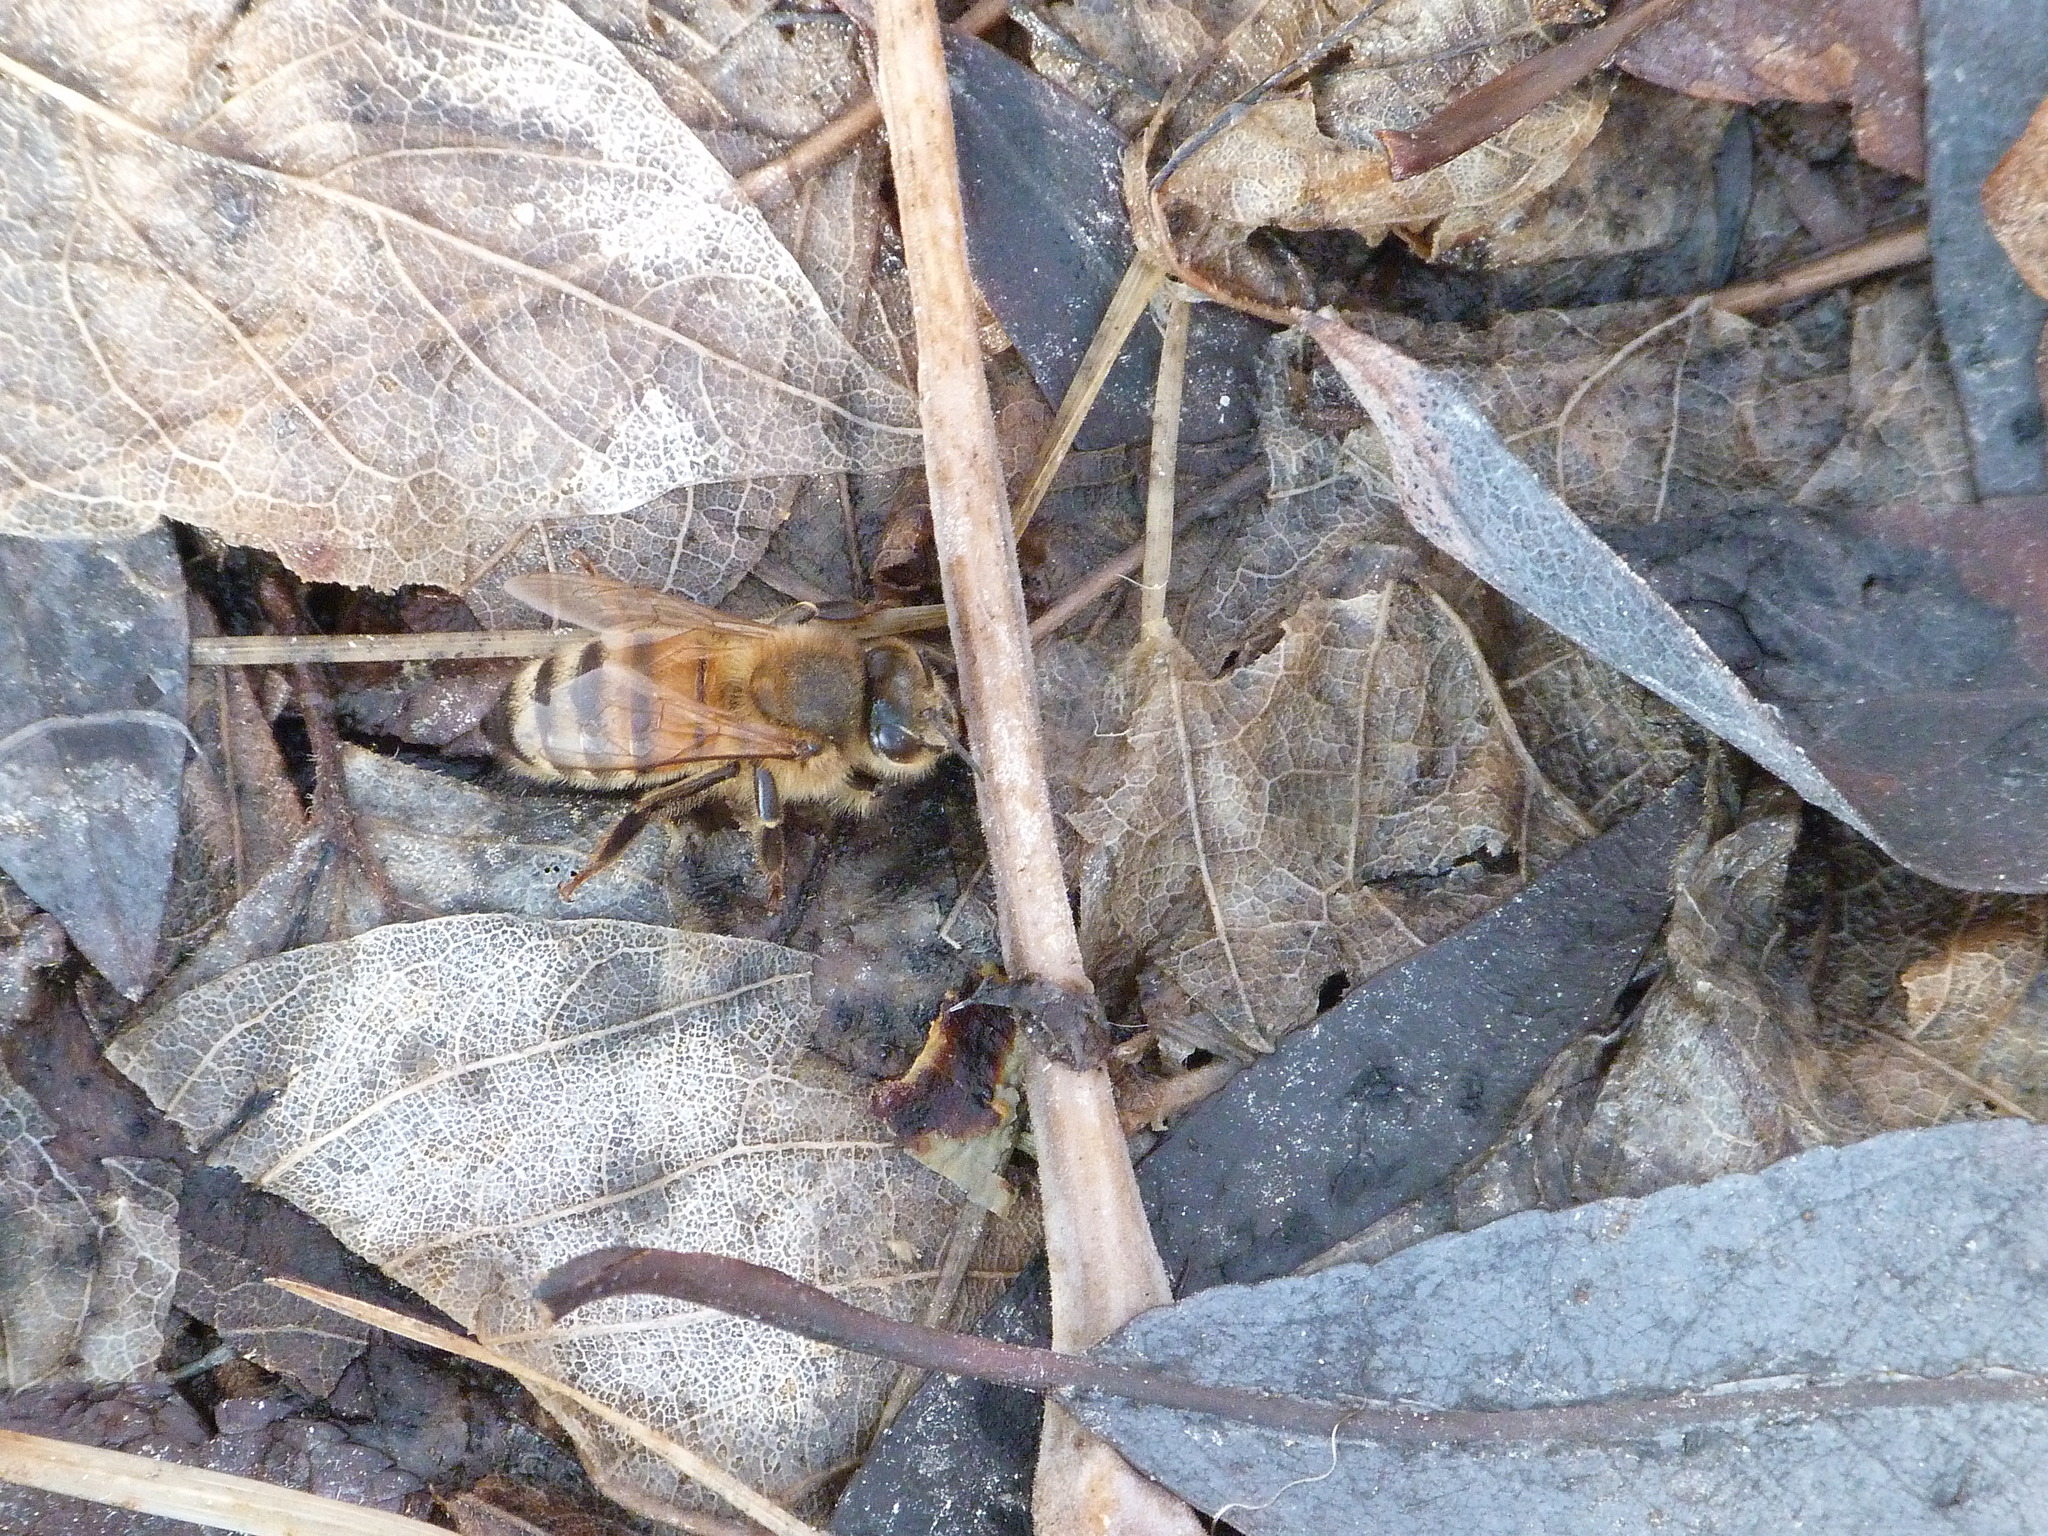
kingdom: Animalia
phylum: Arthropoda
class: Insecta
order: Hymenoptera
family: Apidae
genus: Apis
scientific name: Apis mellifera
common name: Honey bee
